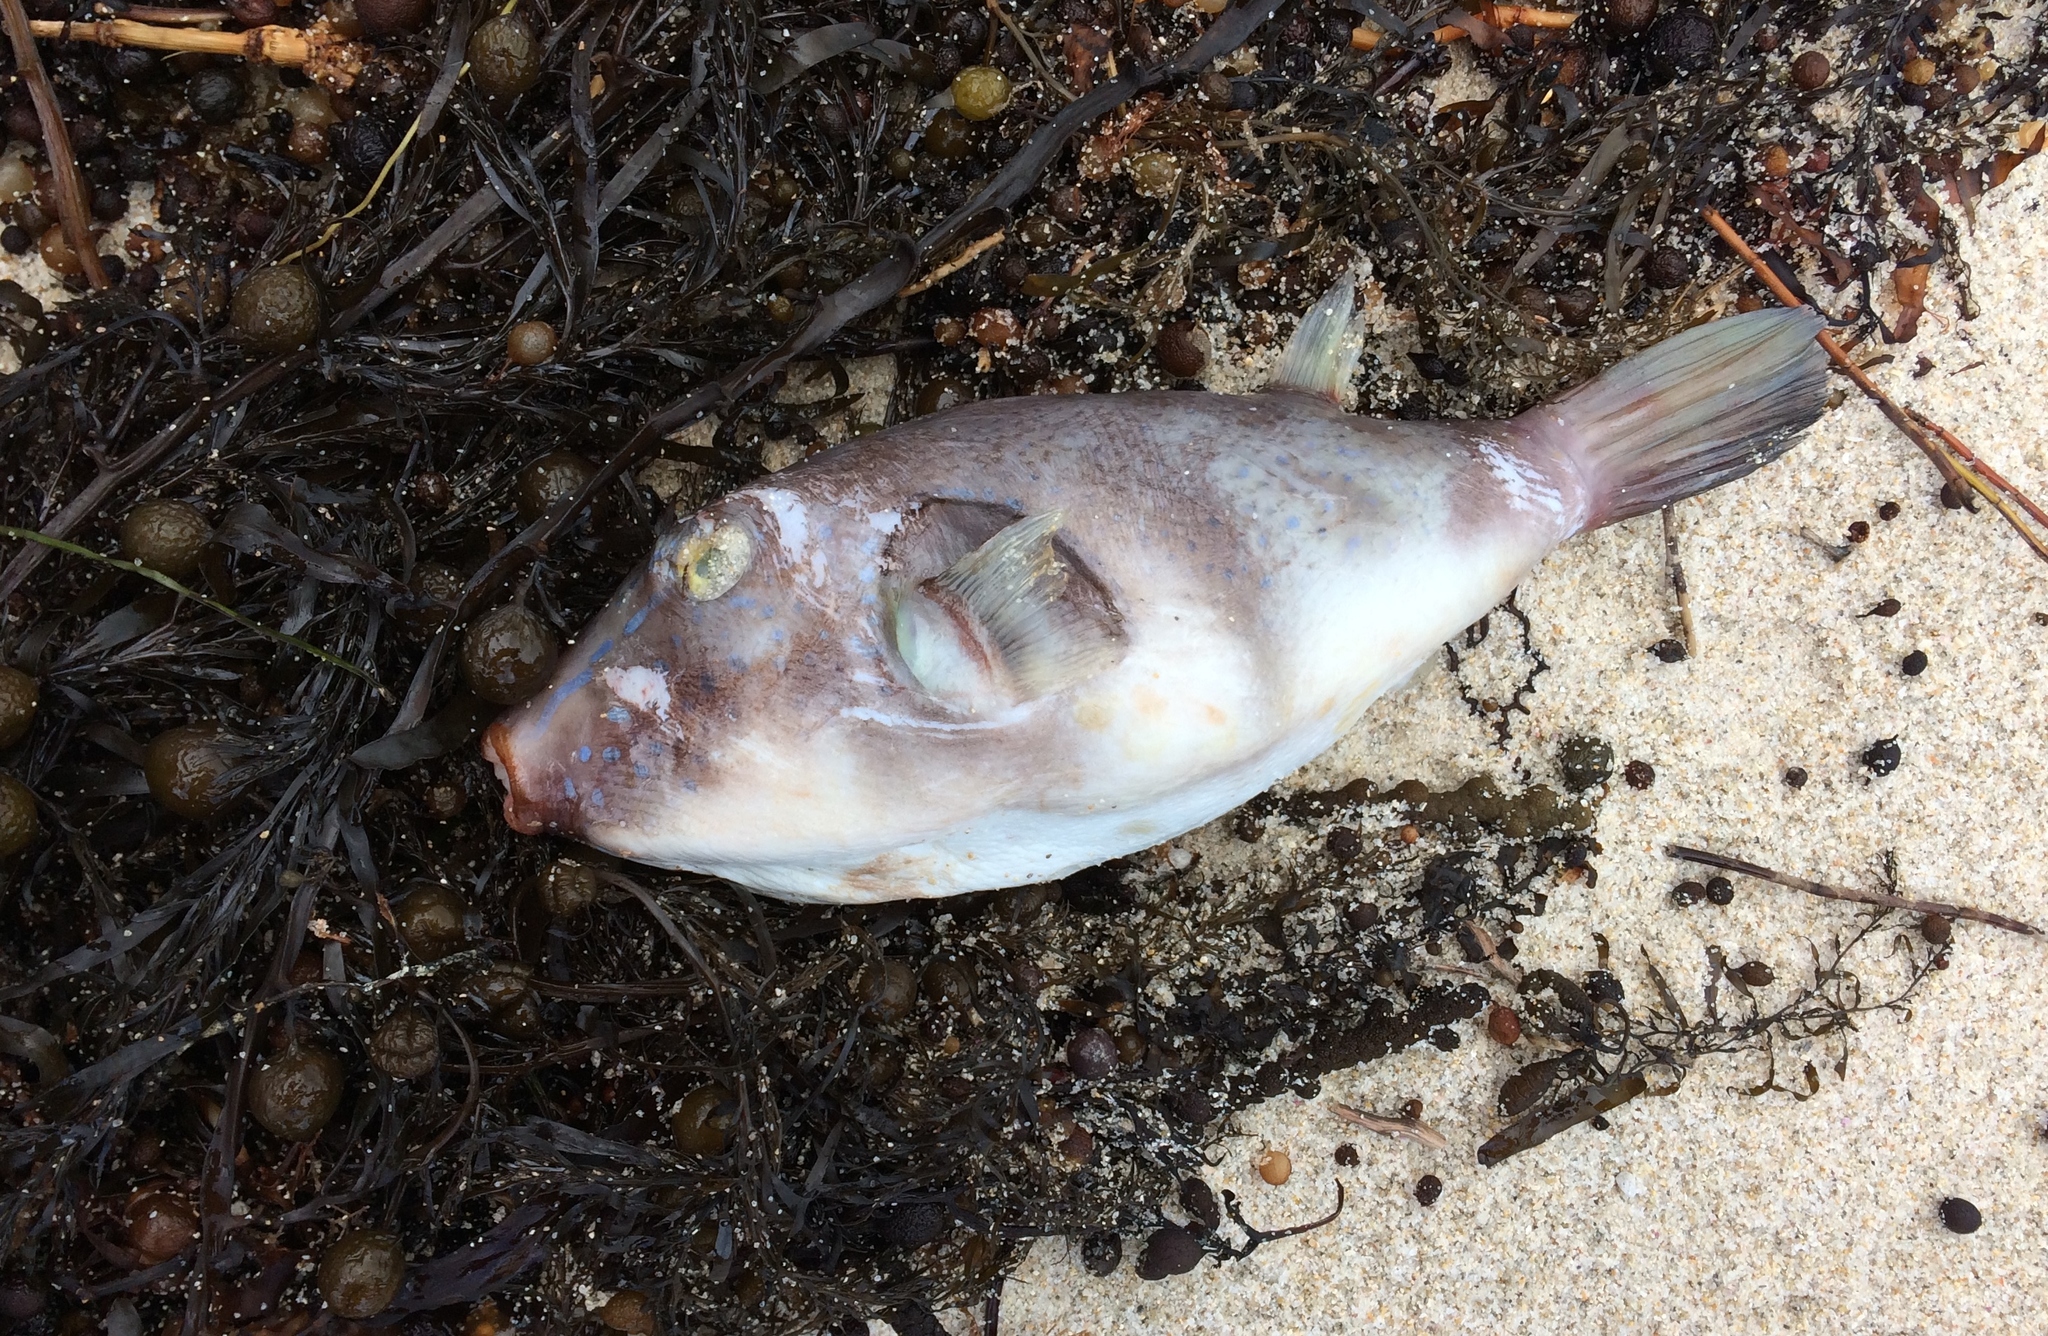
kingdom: Animalia
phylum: Chordata
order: Tetraodontiformes
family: Tetraodontidae
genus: Omegophora
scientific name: Omegophora armilla
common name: Ringed pufferfish
